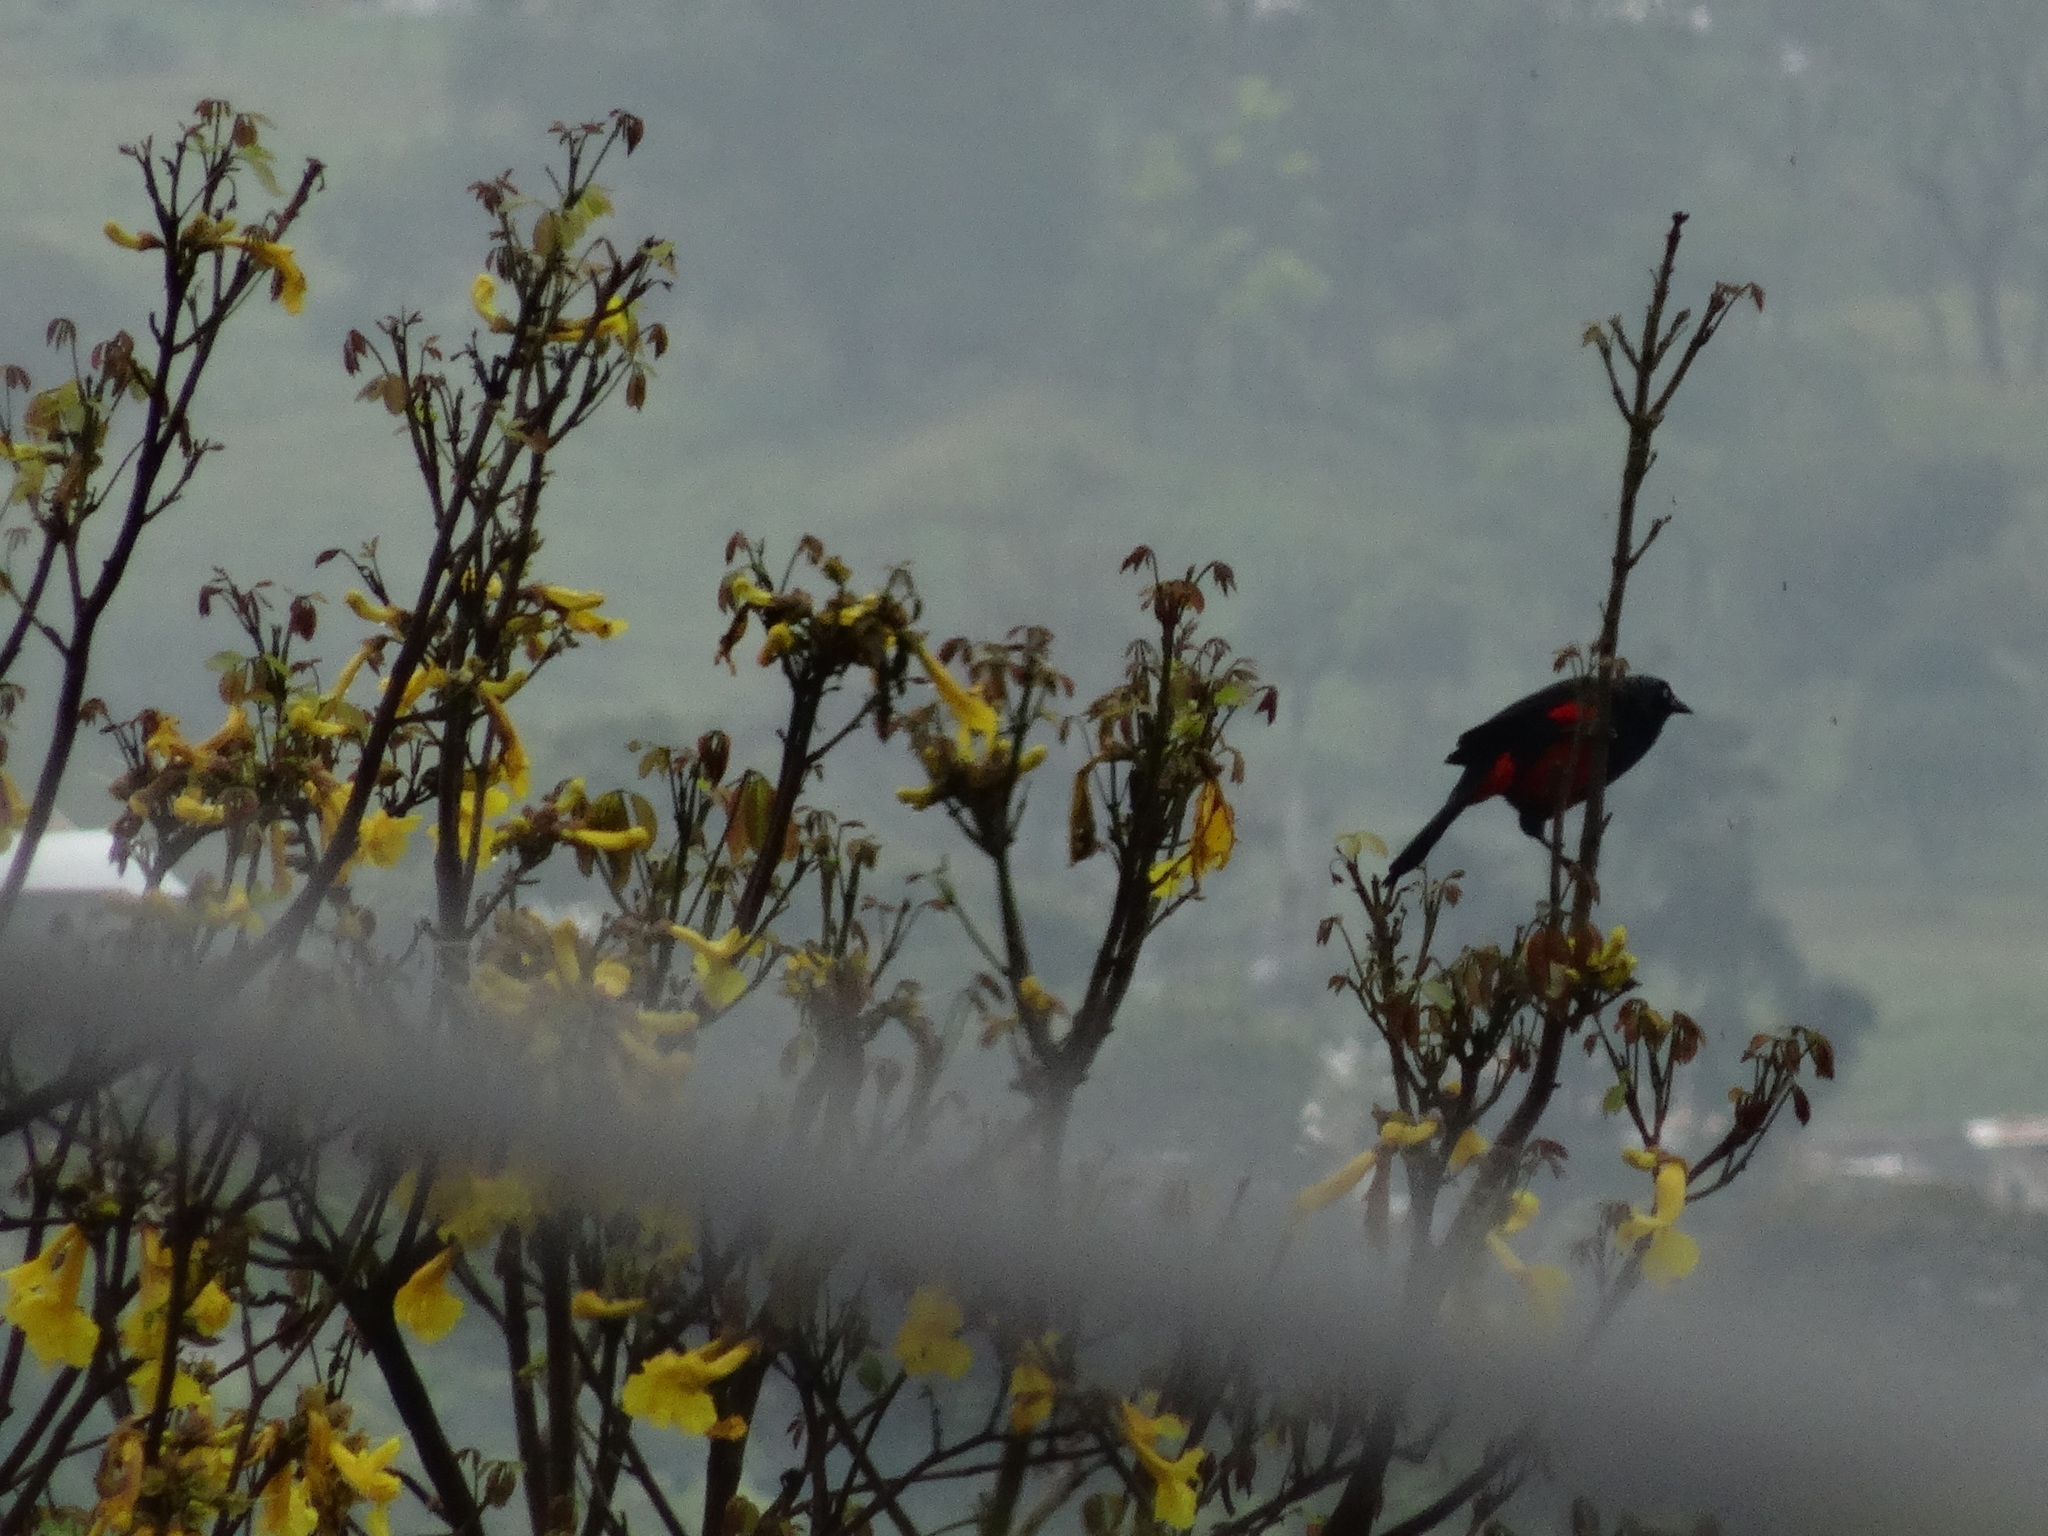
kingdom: Animalia
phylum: Chordata
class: Aves
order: Passeriformes
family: Icteridae
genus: Hypopyrrhus
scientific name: Hypopyrrhus pyrohypogaster
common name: Red-bellied grackle
